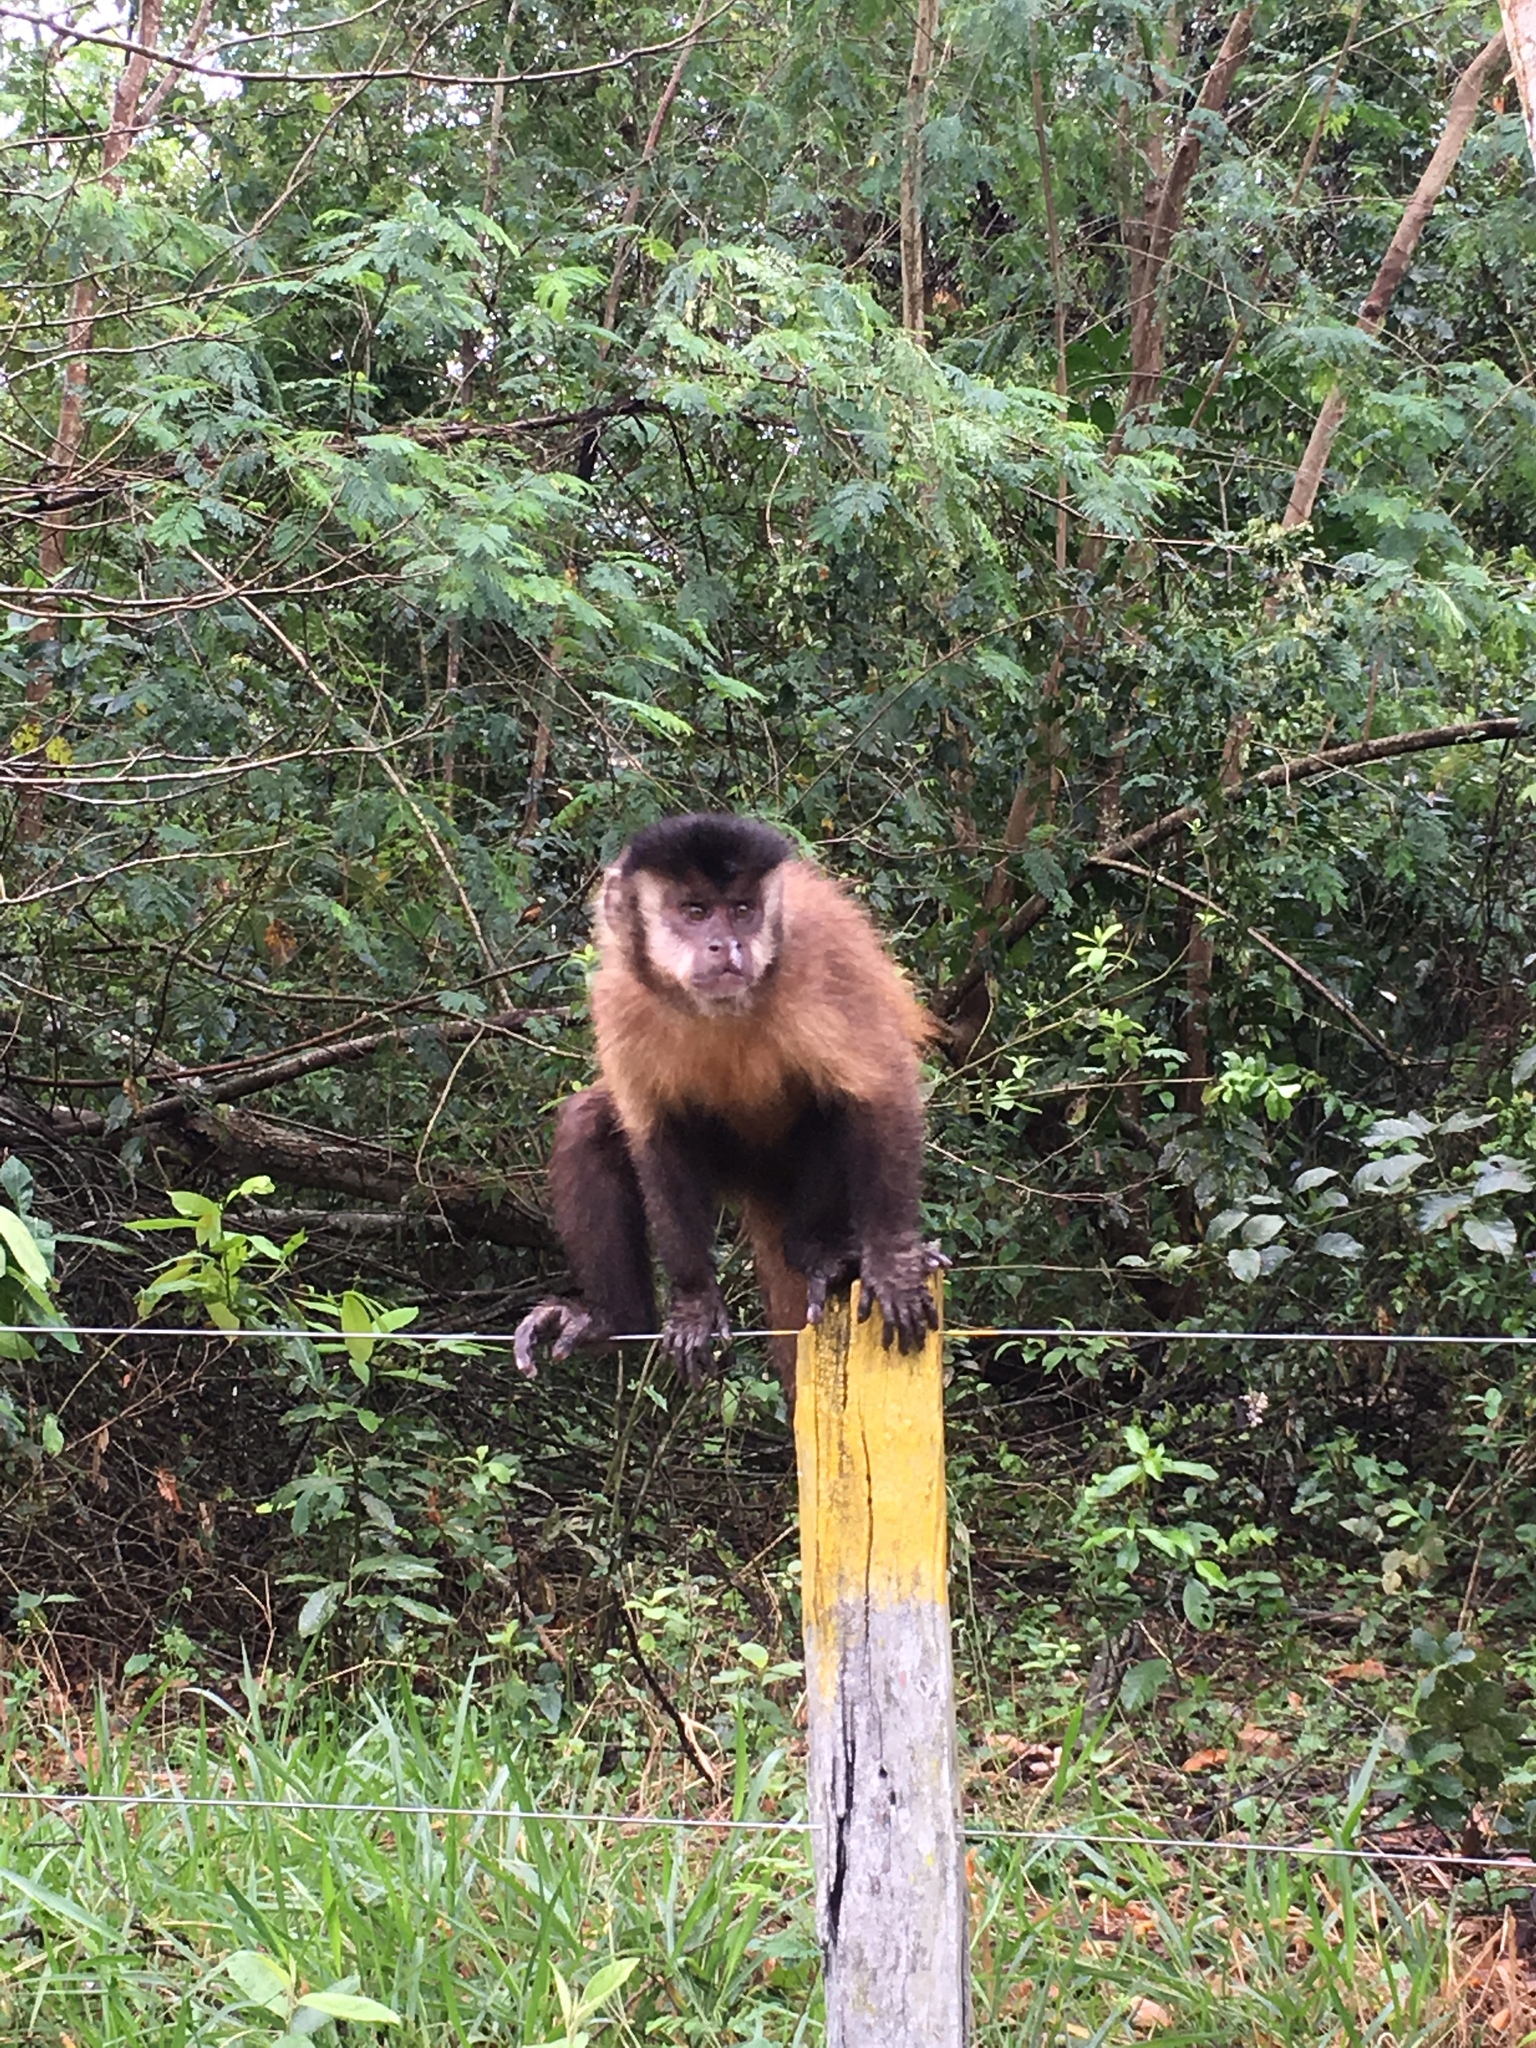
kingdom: Animalia
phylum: Chordata
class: Mammalia
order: Primates
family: Cebidae
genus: Sapajus
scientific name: Sapajus cay
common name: Hooded capuchin
